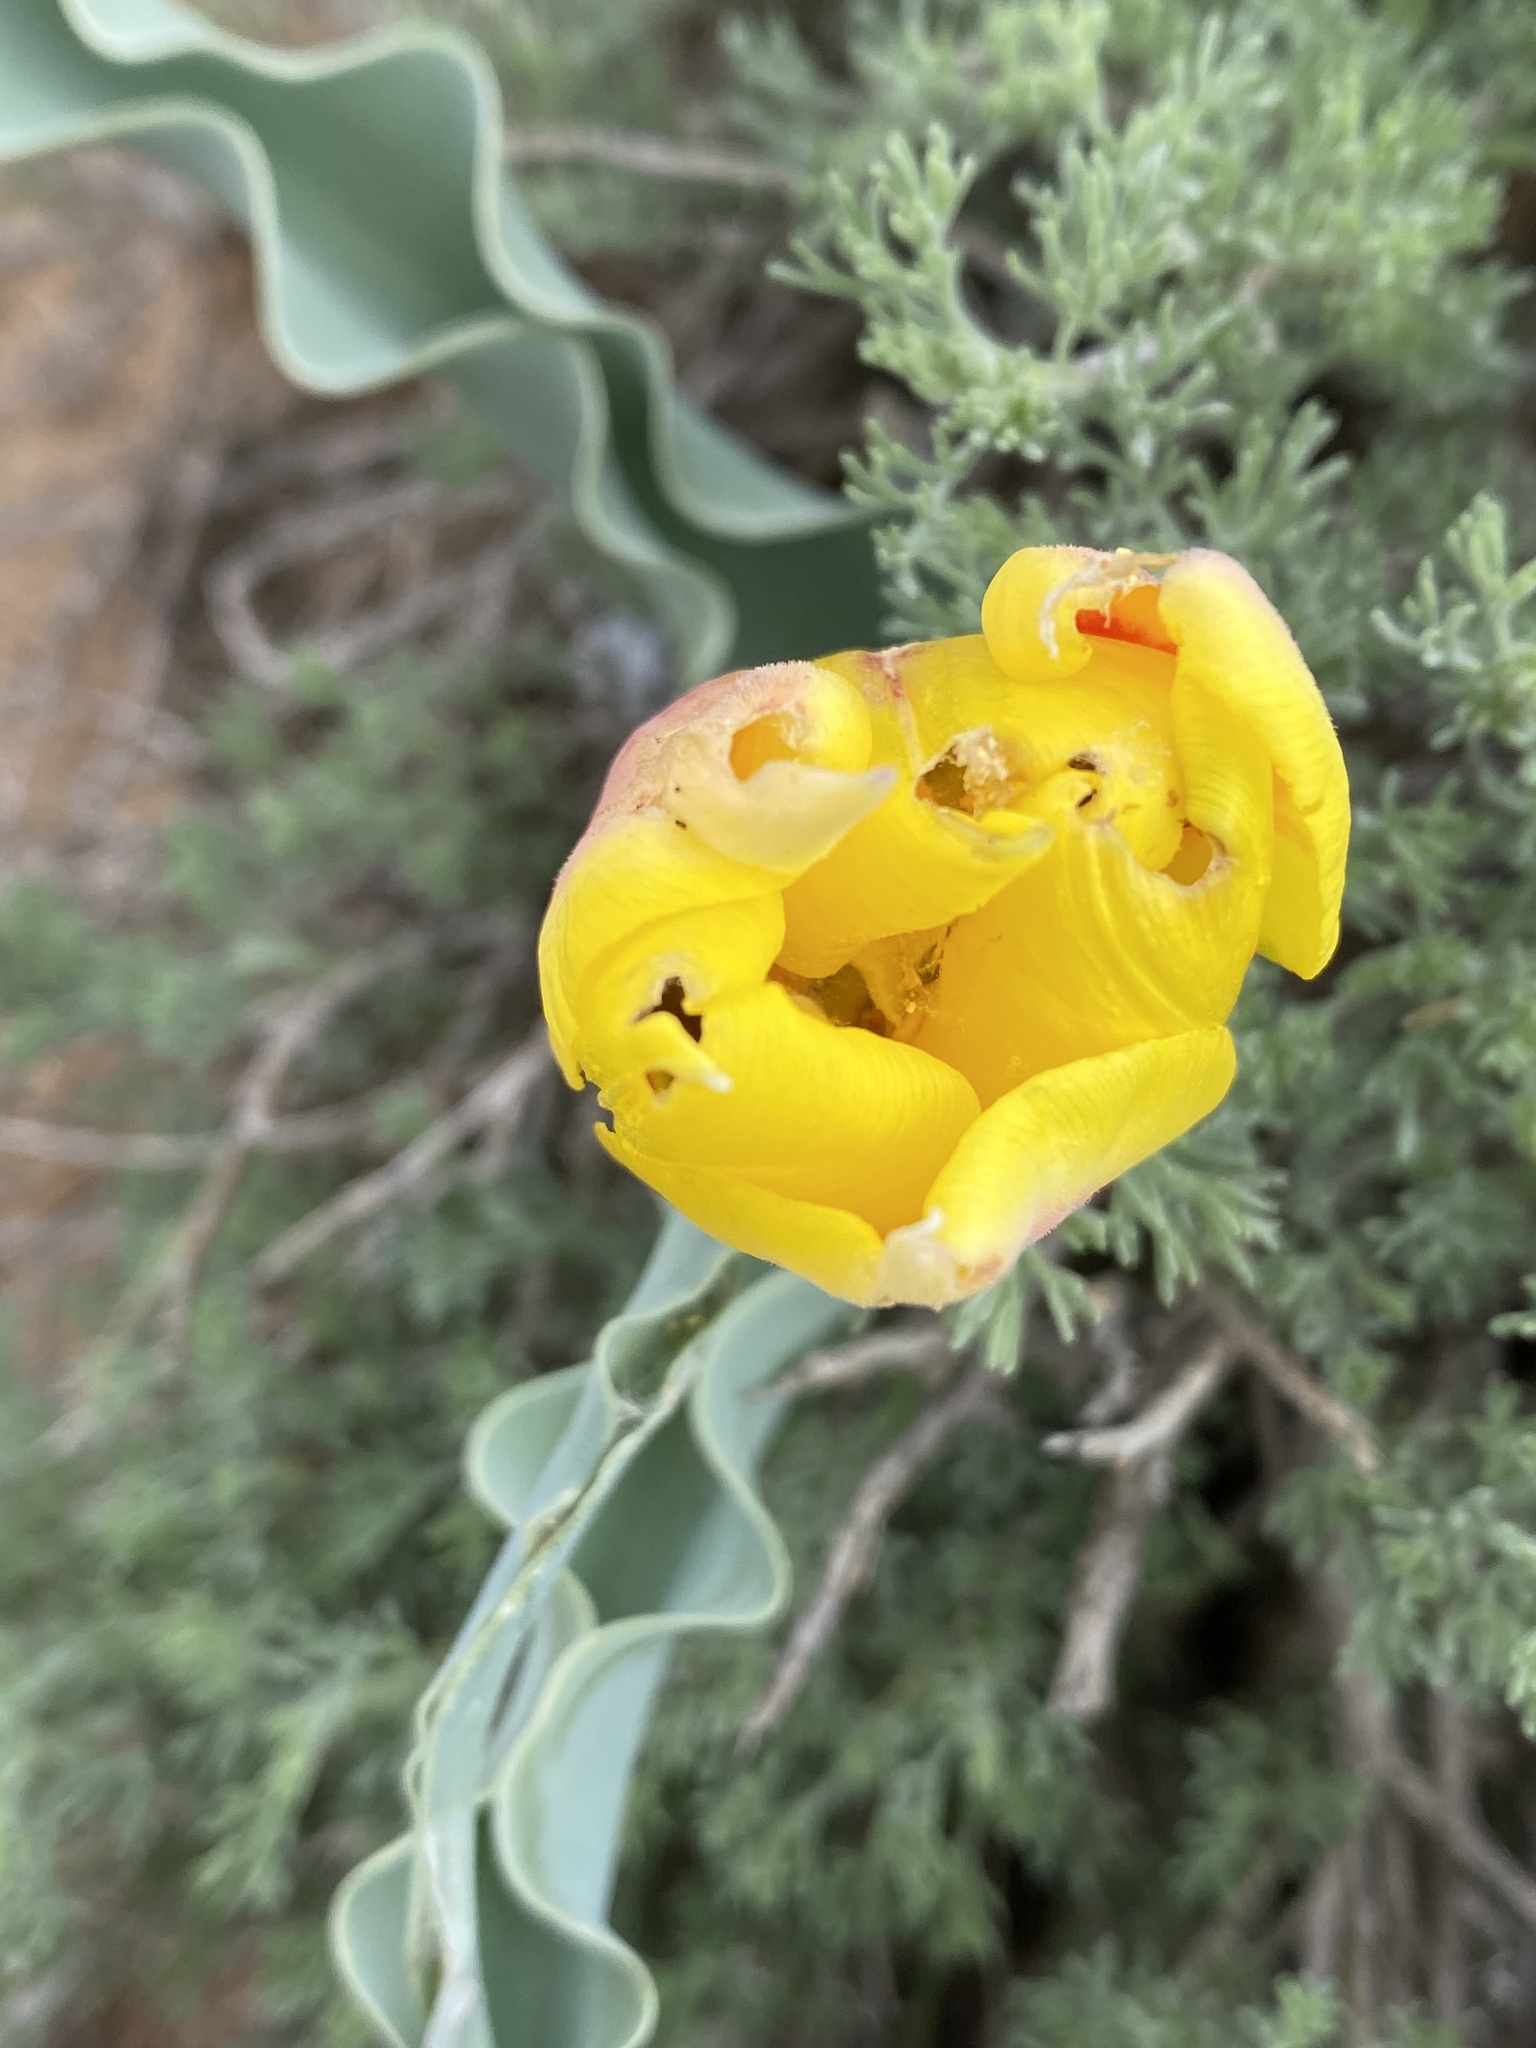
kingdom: Plantae
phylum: Tracheophyta
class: Liliopsida
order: Liliales
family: Liliaceae
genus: Tulipa
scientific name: Tulipa alberti
